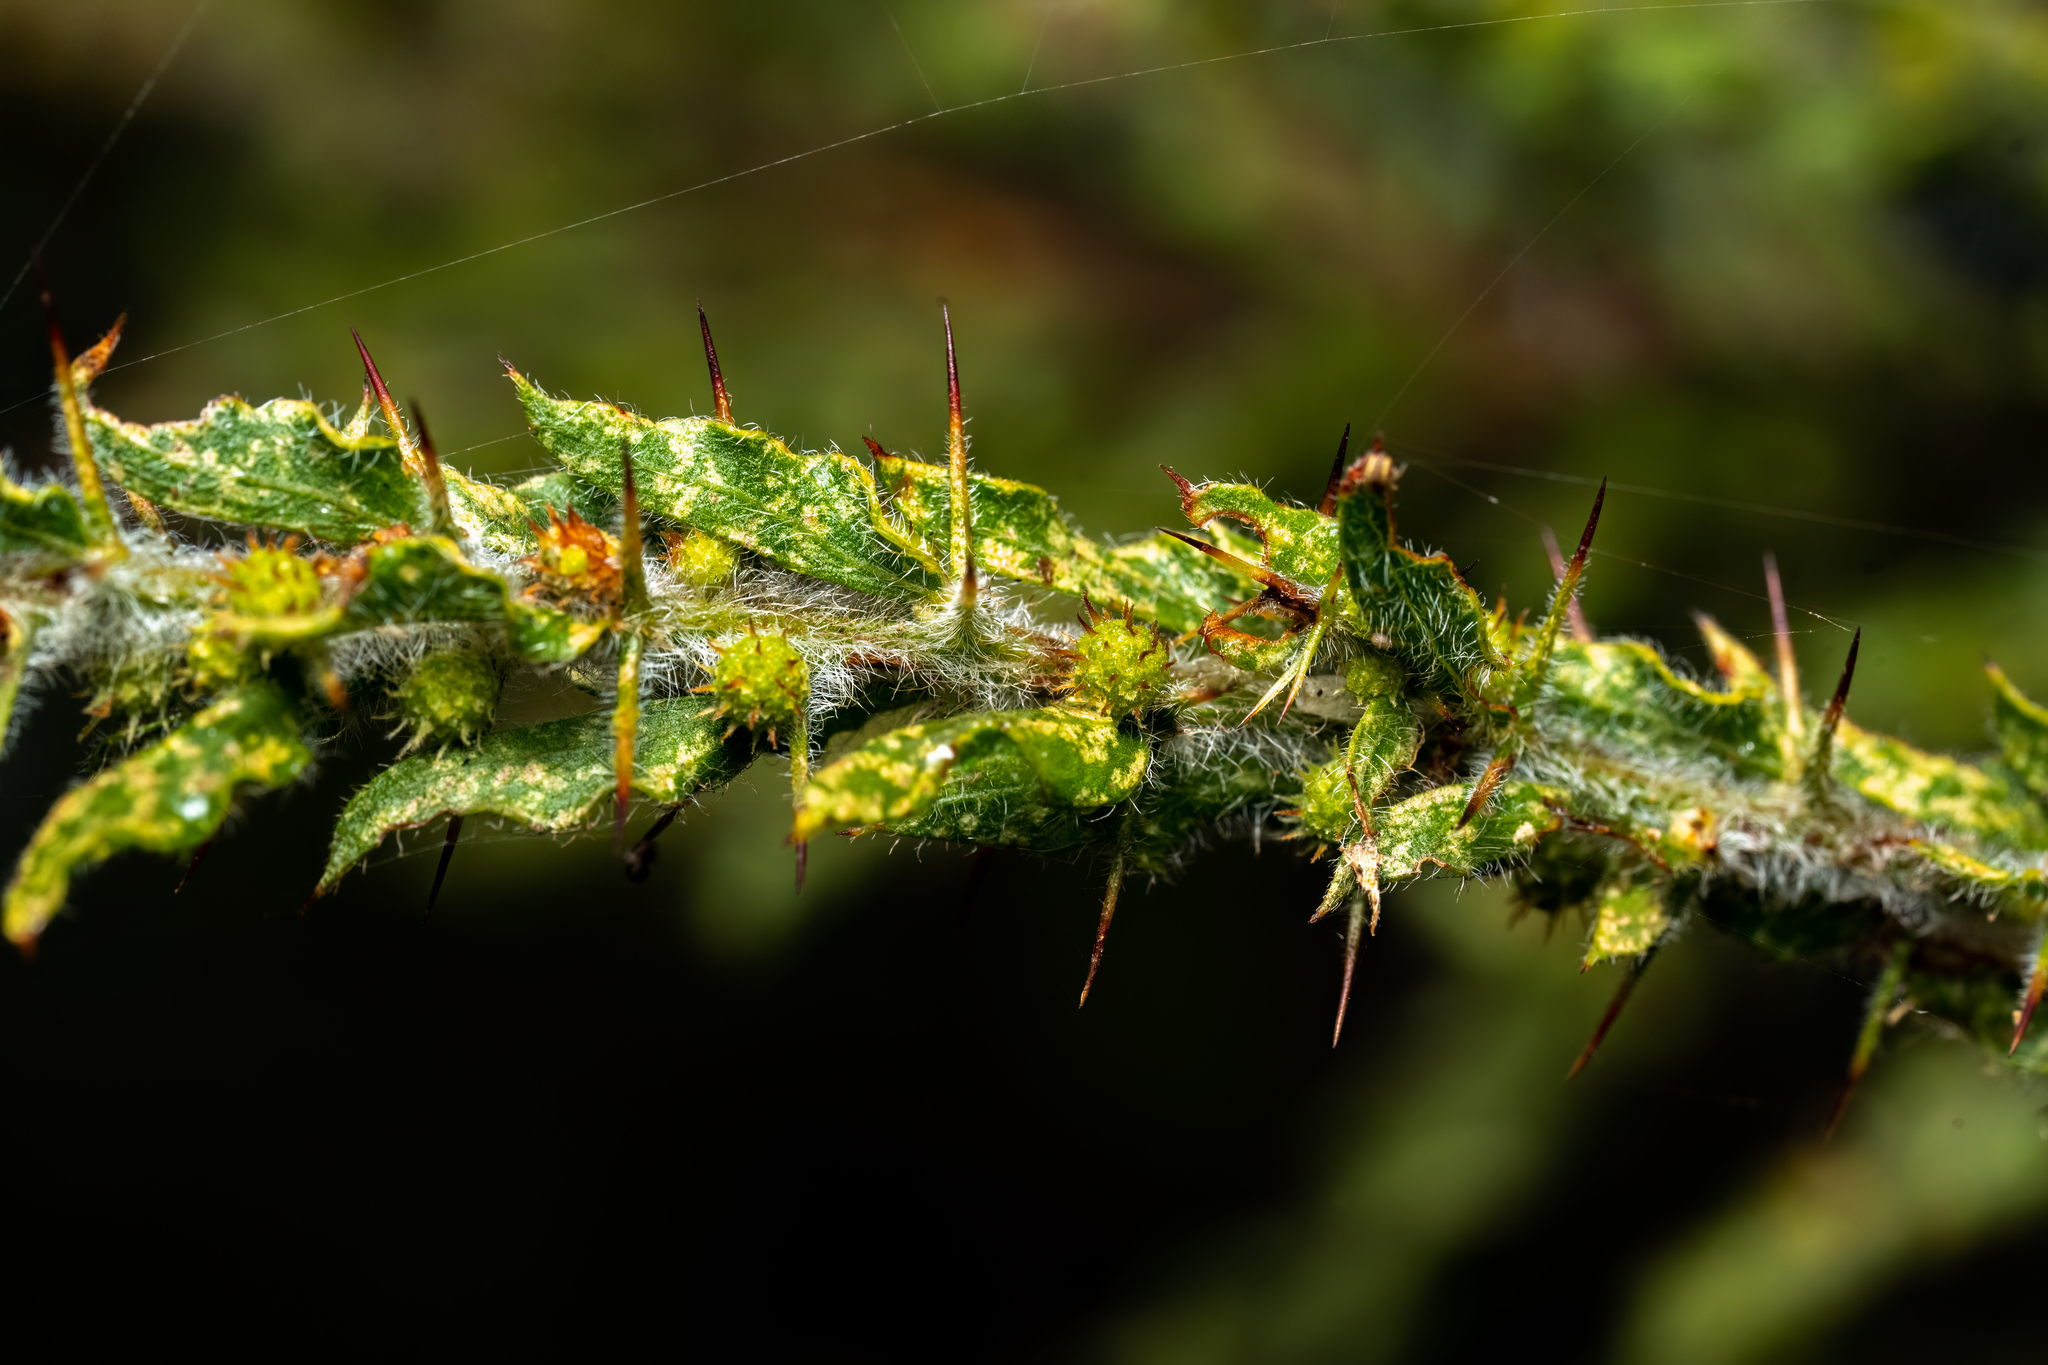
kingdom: Plantae
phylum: Tracheophyta
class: Magnoliopsida
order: Fabales
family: Fabaceae
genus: Acacia
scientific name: Acacia paradoxa
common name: Paradox acacia
